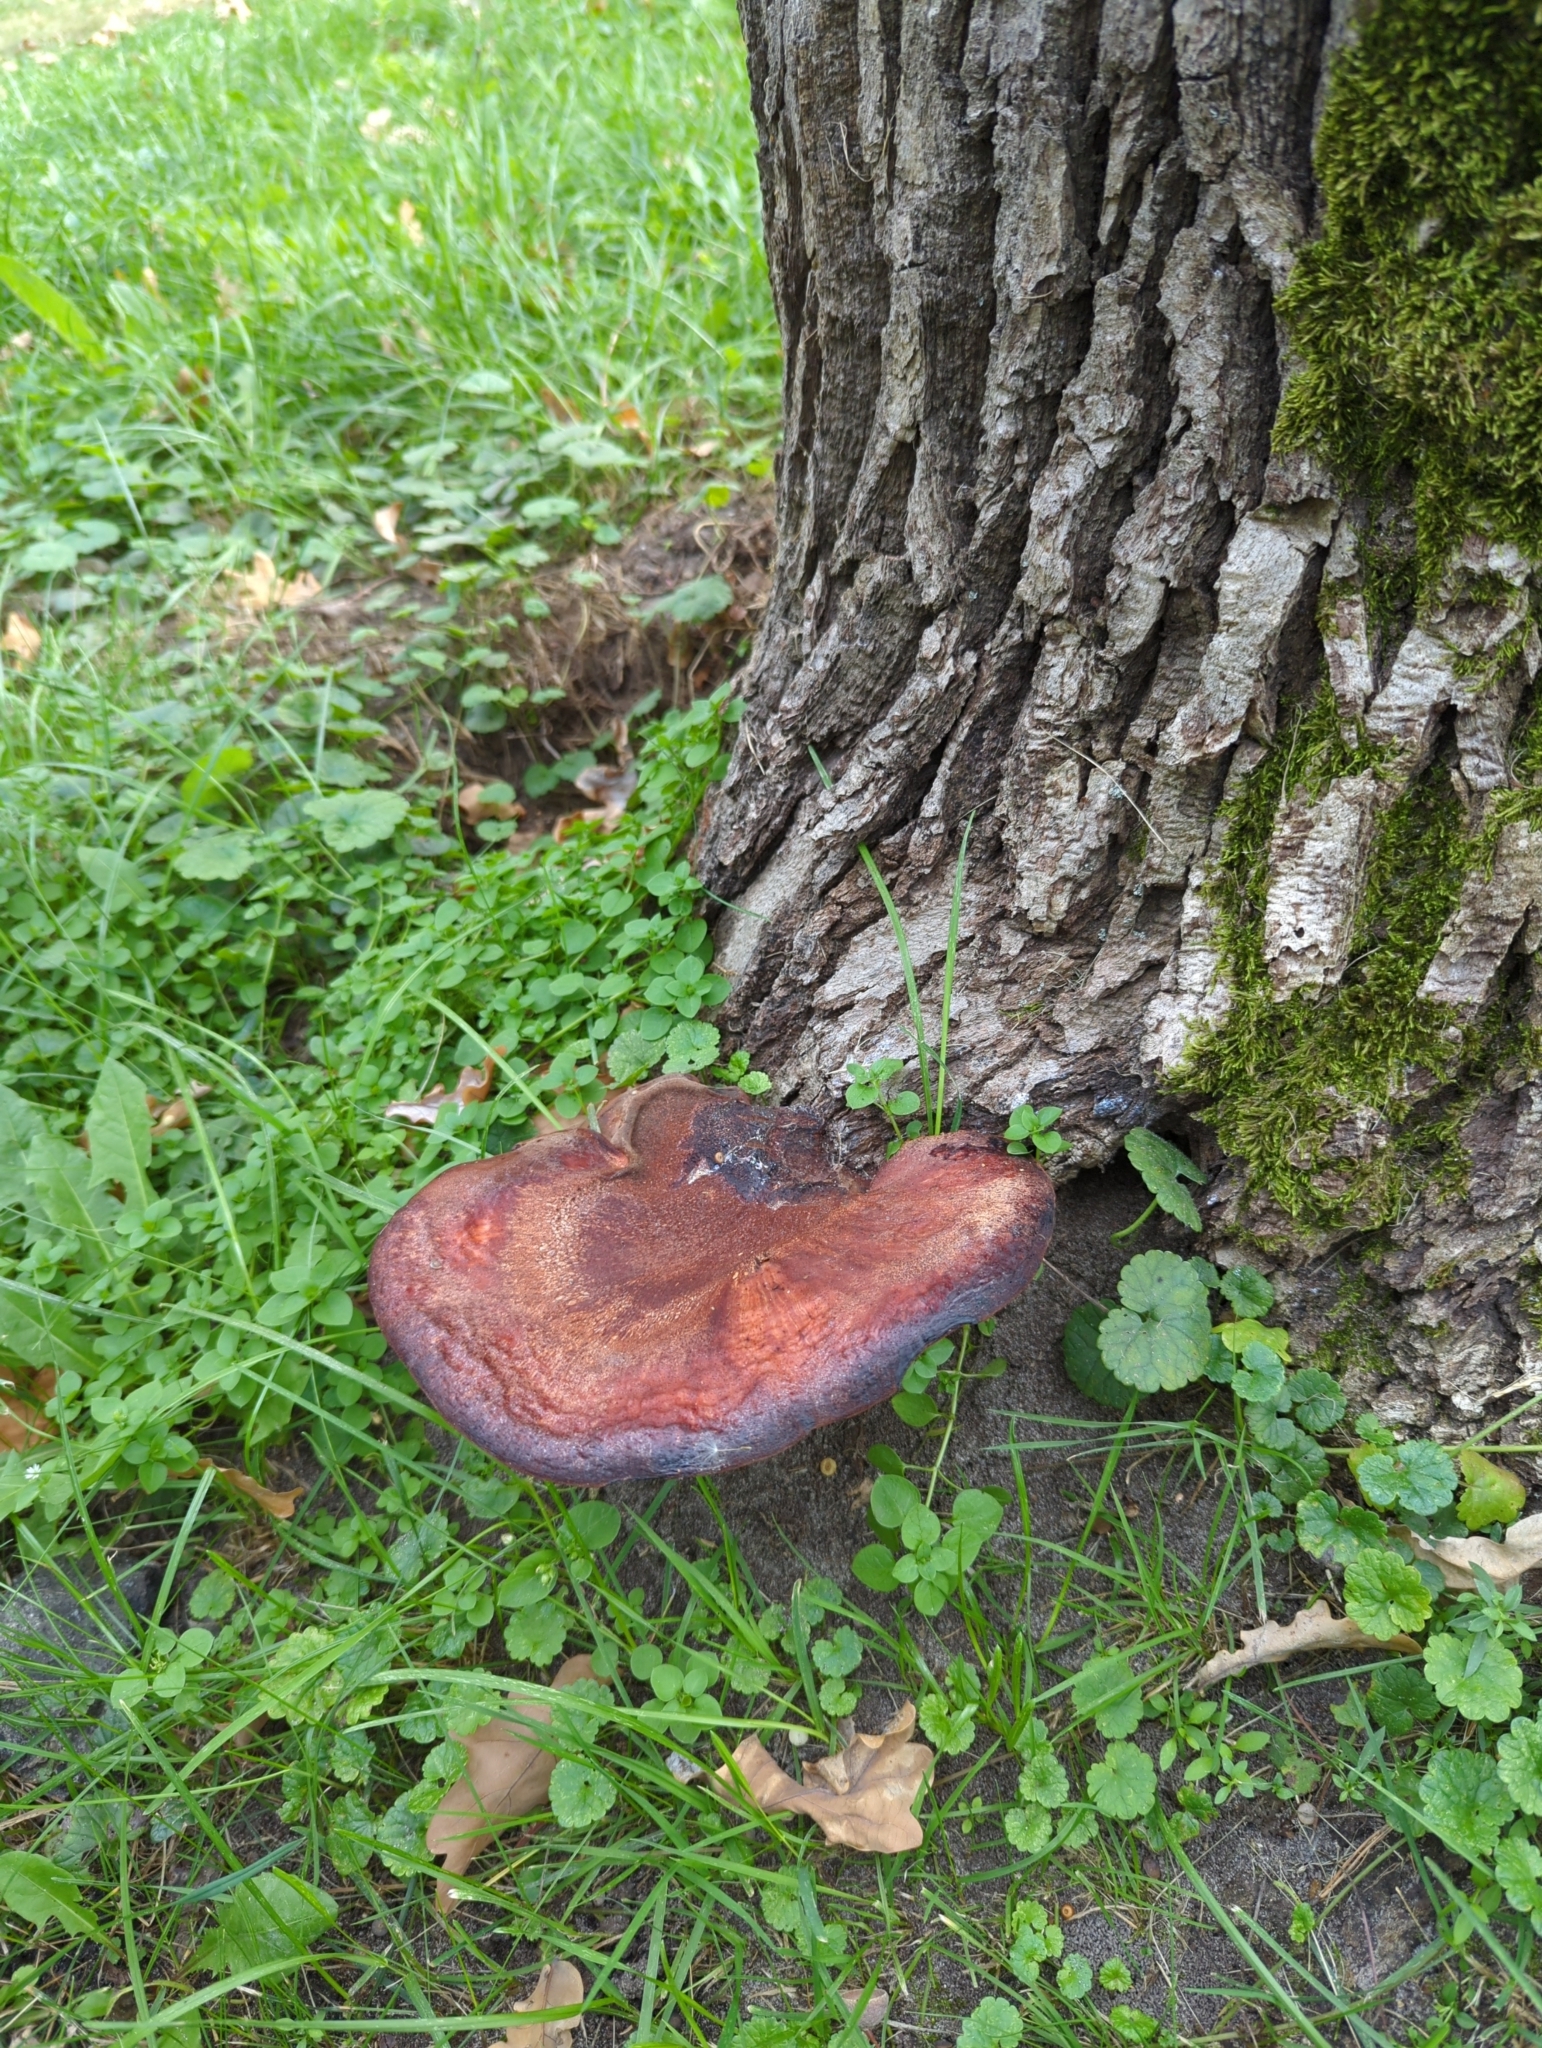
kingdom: Fungi
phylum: Basidiomycota
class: Agaricomycetes
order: Agaricales
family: Fistulinaceae
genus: Fistulina
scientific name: Fistulina hepatica
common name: Beef-steak fungus
